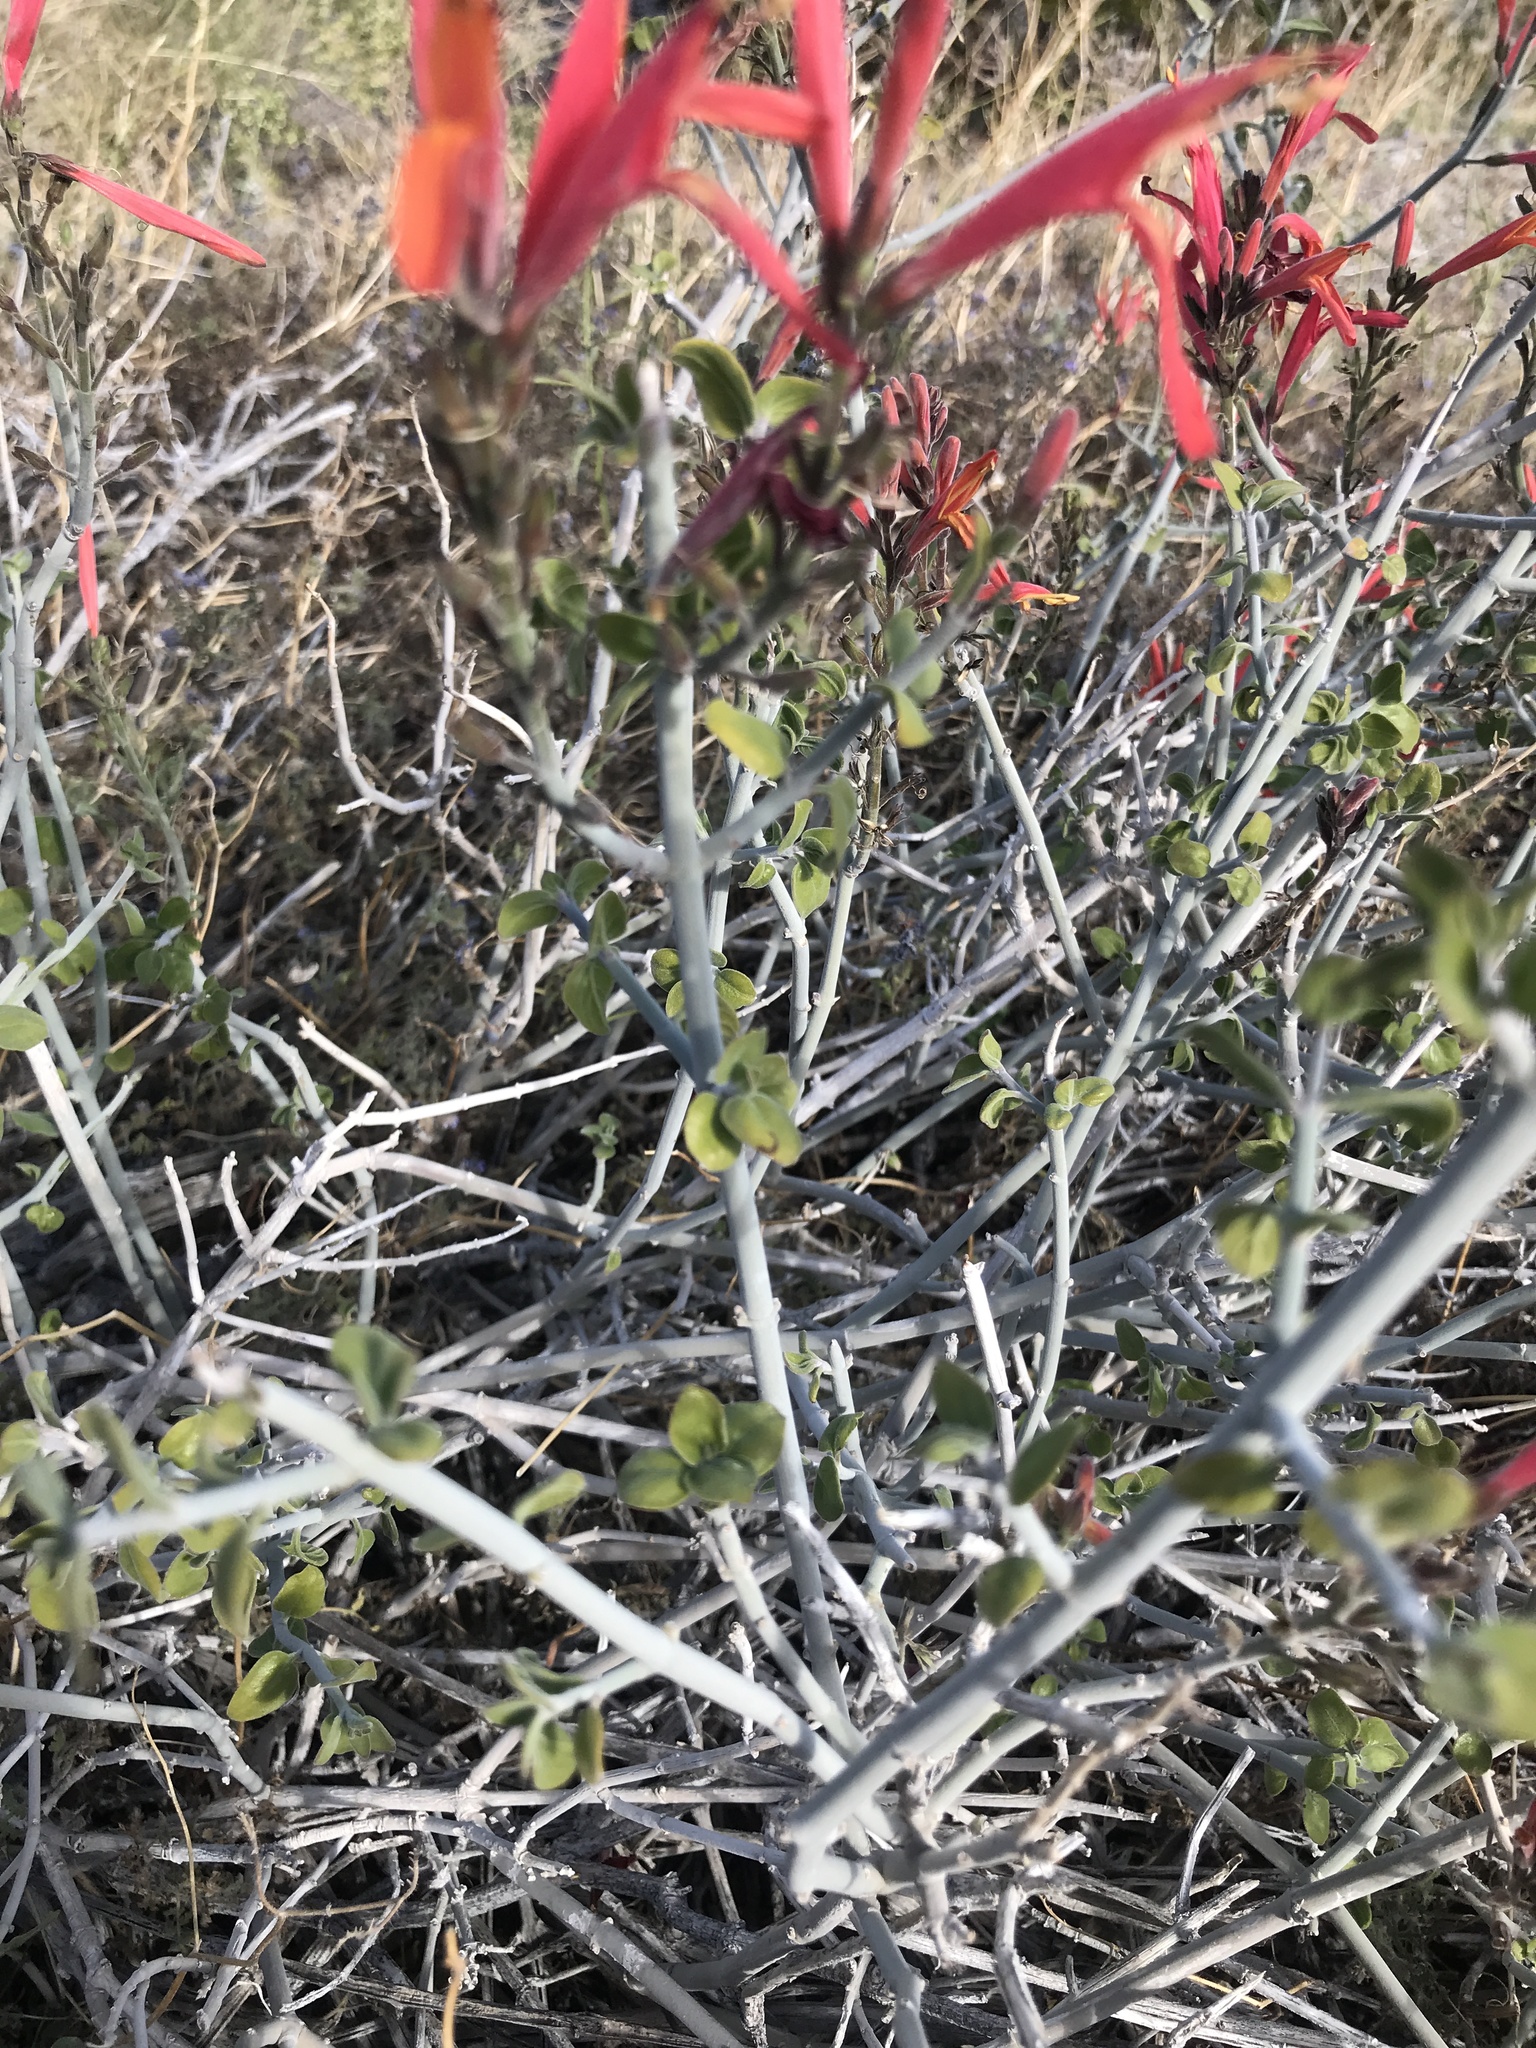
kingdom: Plantae
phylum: Tracheophyta
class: Magnoliopsida
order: Lamiales
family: Acanthaceae
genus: Justicia
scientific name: Justicia californica
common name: Chuparosa-honeysuckle
